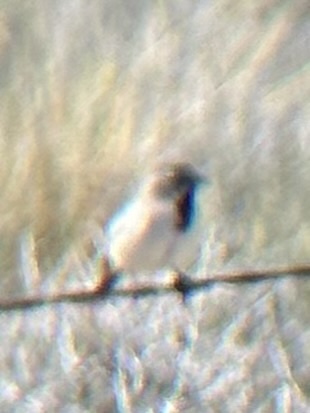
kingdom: Animalia
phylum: Chordata
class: Aves
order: Passeriformes
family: Passerellidae
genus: Amphispiza
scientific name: Amphispiza bilineata
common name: Black-throated sparrow
